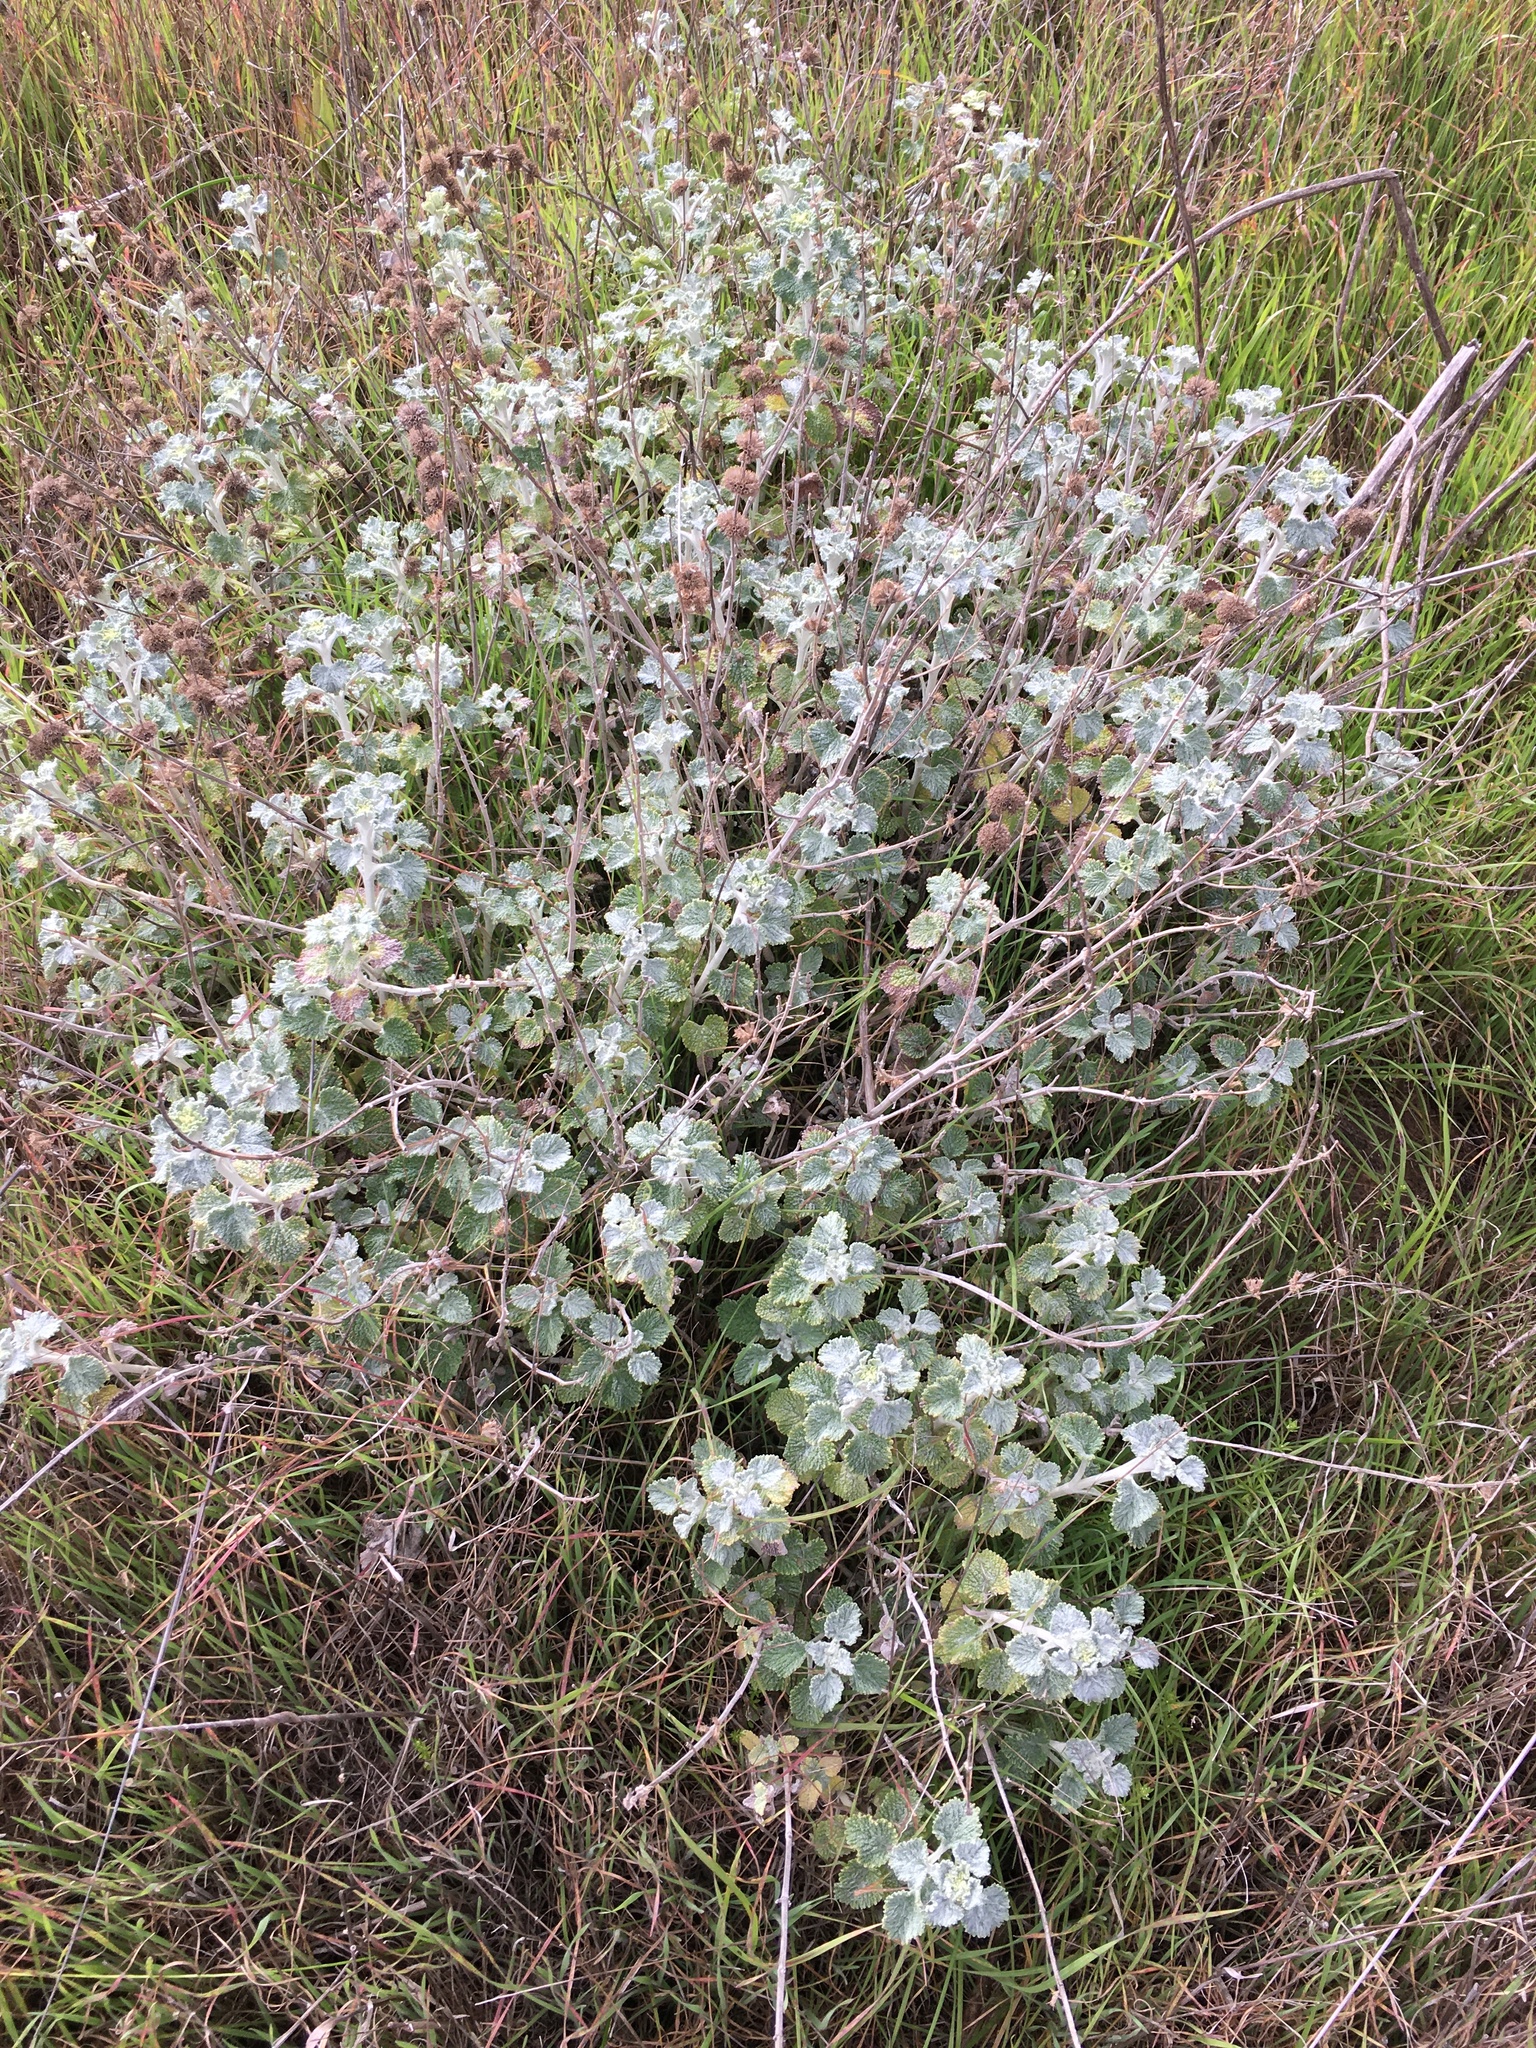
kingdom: Plantae
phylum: Tracheophyta
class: Magnoliopsida
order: Lamiales
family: Lamiaceae
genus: Marrubium
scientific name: Marrubium vulgare
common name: Horehound
